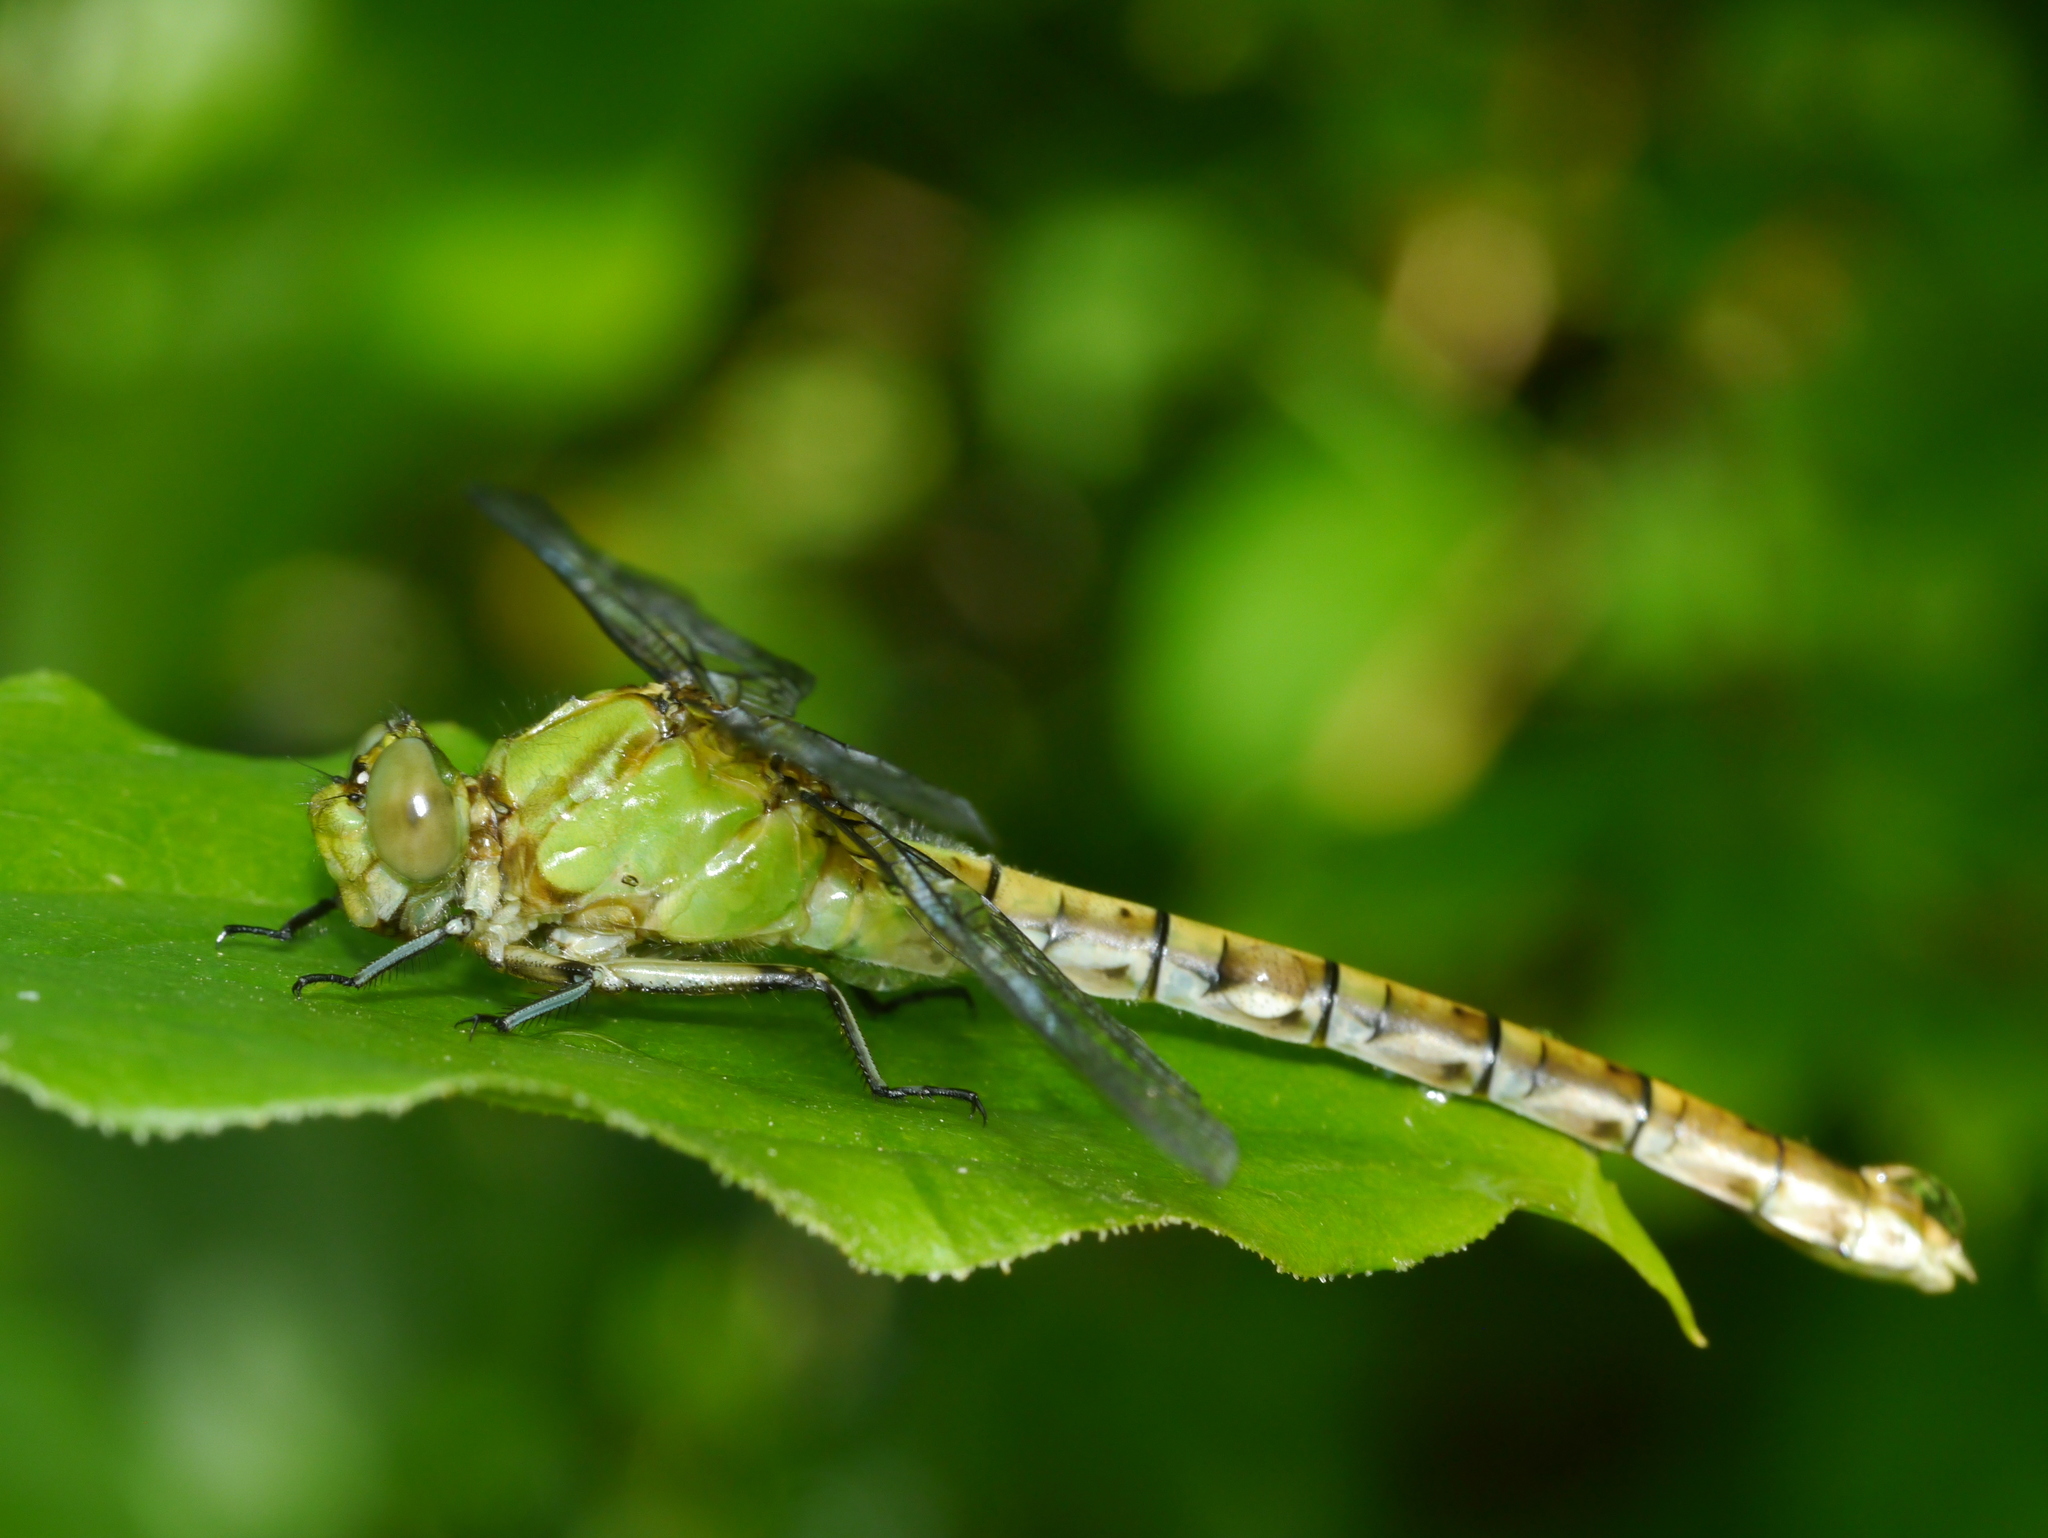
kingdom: Animalia
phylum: Arthropoda
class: Insecta
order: Odonata
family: Gomphidae
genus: Erpetogomphus
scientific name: Erpetogomphus designatus
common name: Eastern ringtail
